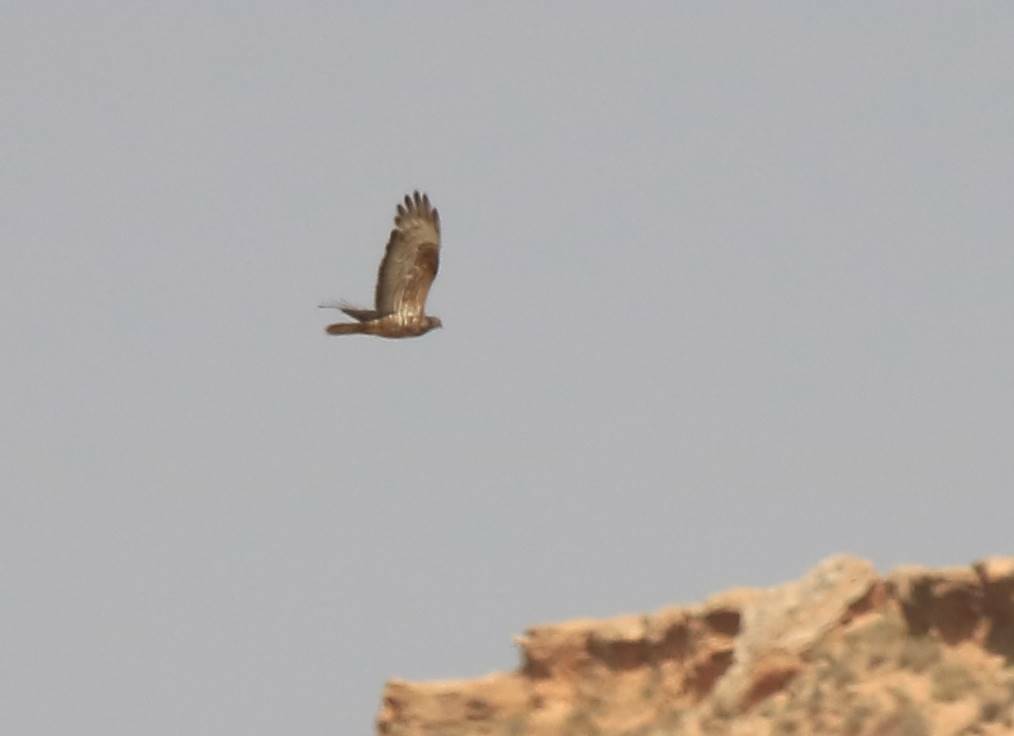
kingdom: Animalia
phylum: Chordata
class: Aves
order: Accipitriformes
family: Accipitridae
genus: Pernis
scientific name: Pernis apivorus
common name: European honey buzzard
